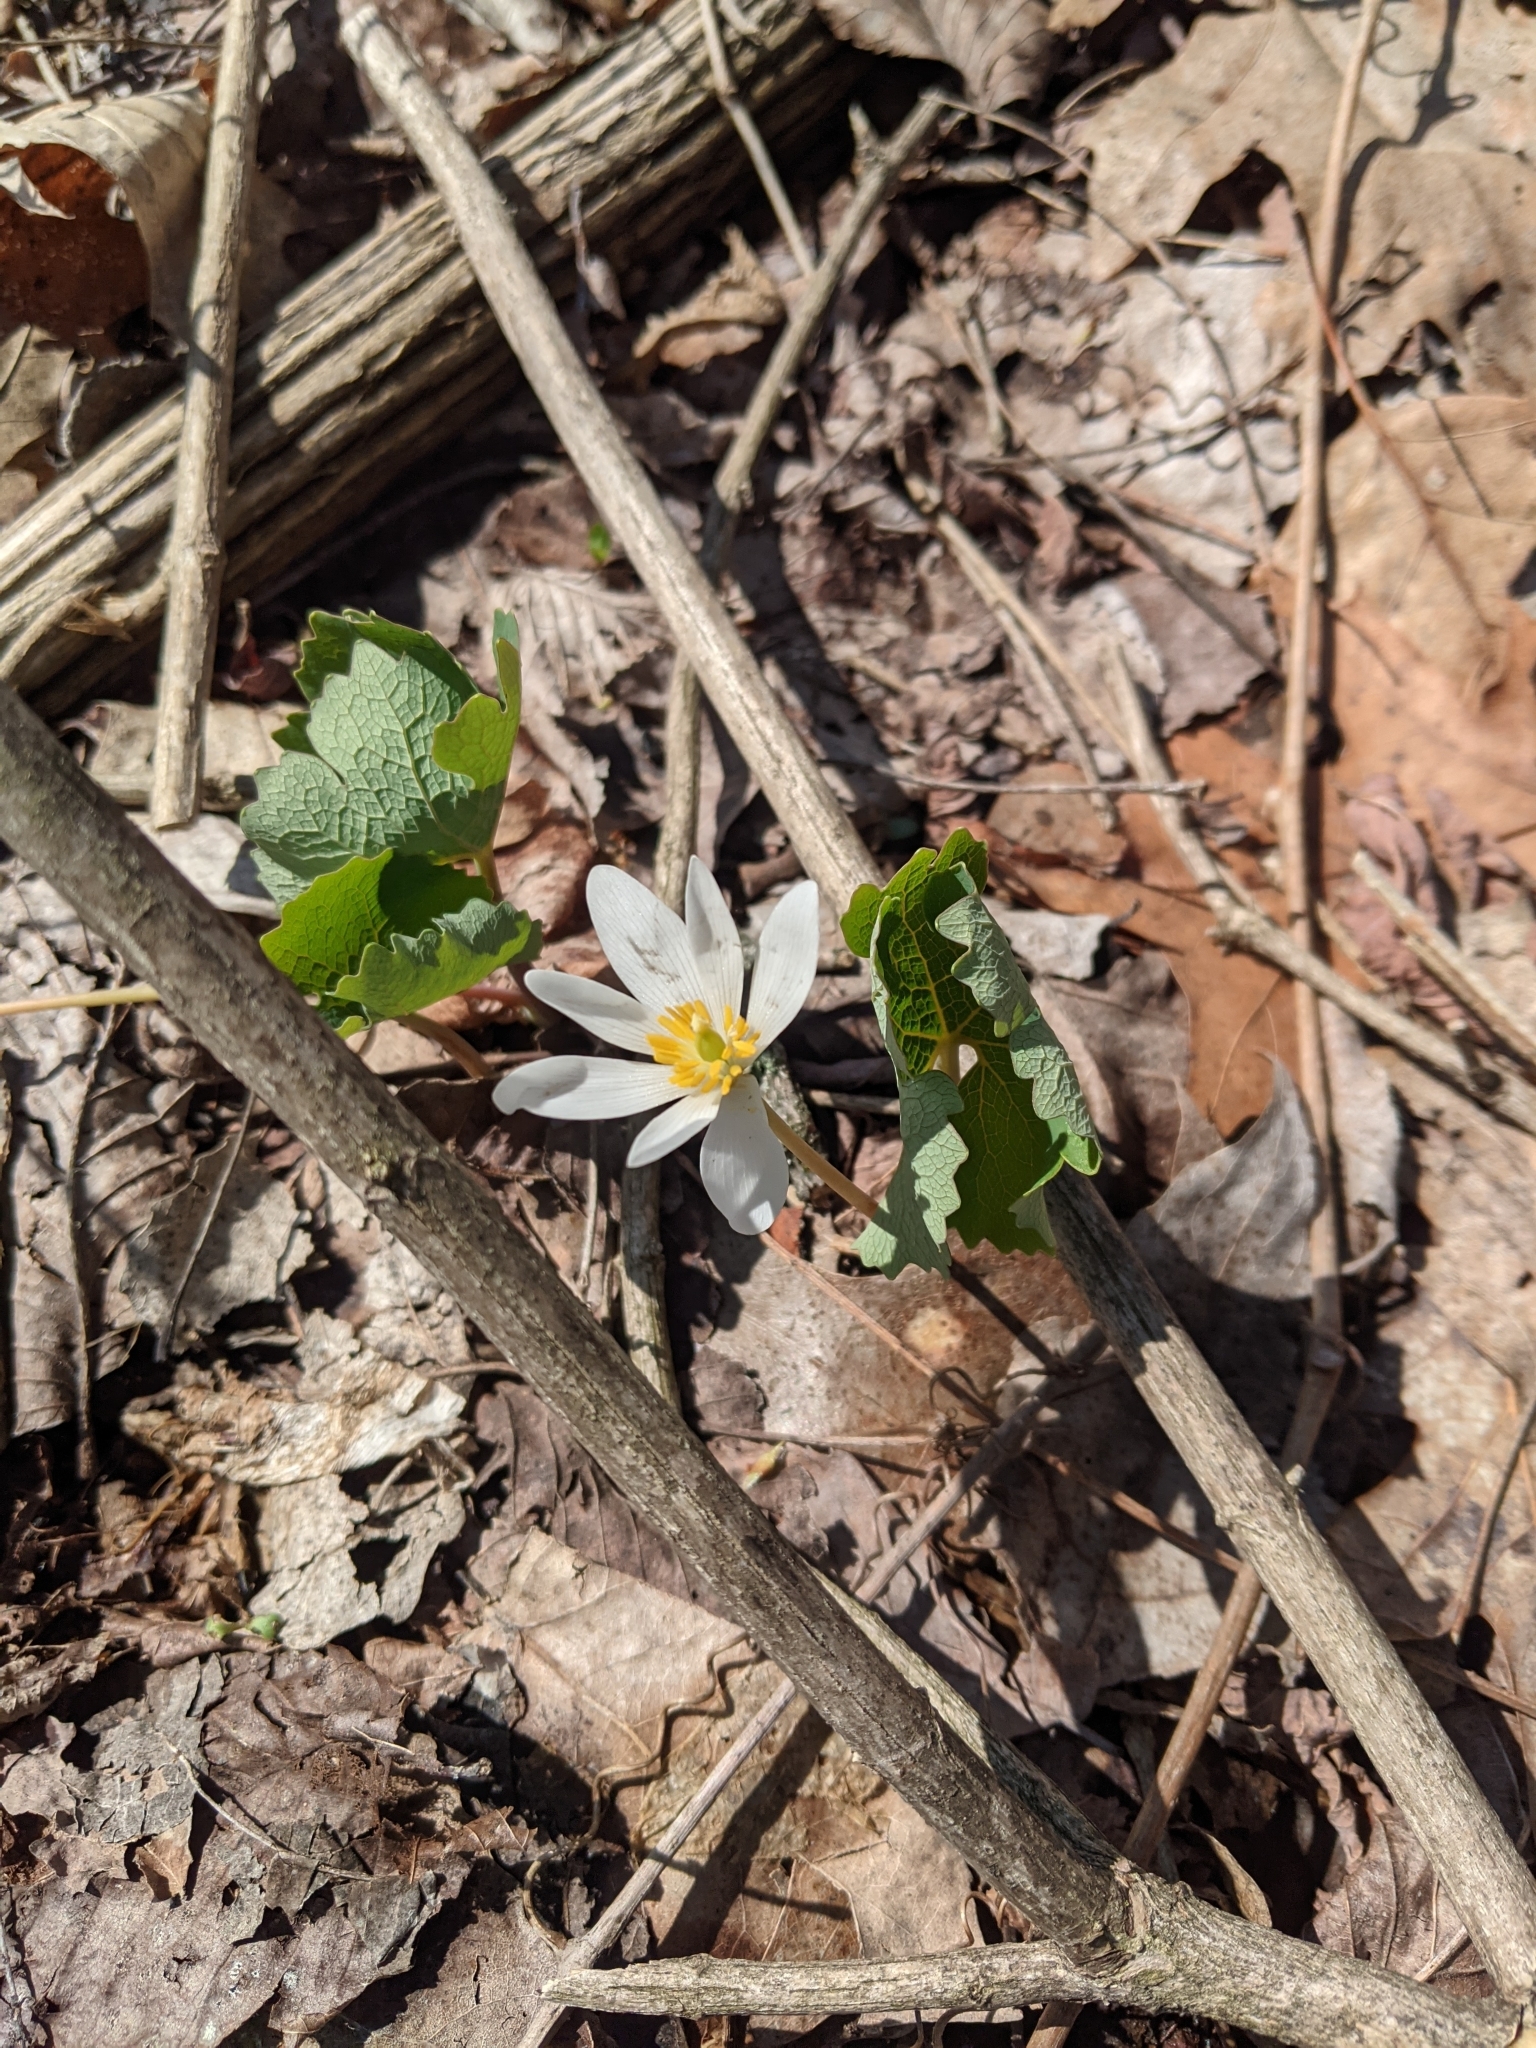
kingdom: Plantae
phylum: Tracheophyta
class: Magnoliopsida
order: Ranunculales
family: Papaveraceae
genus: Sanguinaria
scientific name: Sanguinaria canadensis
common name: Bloodroot
